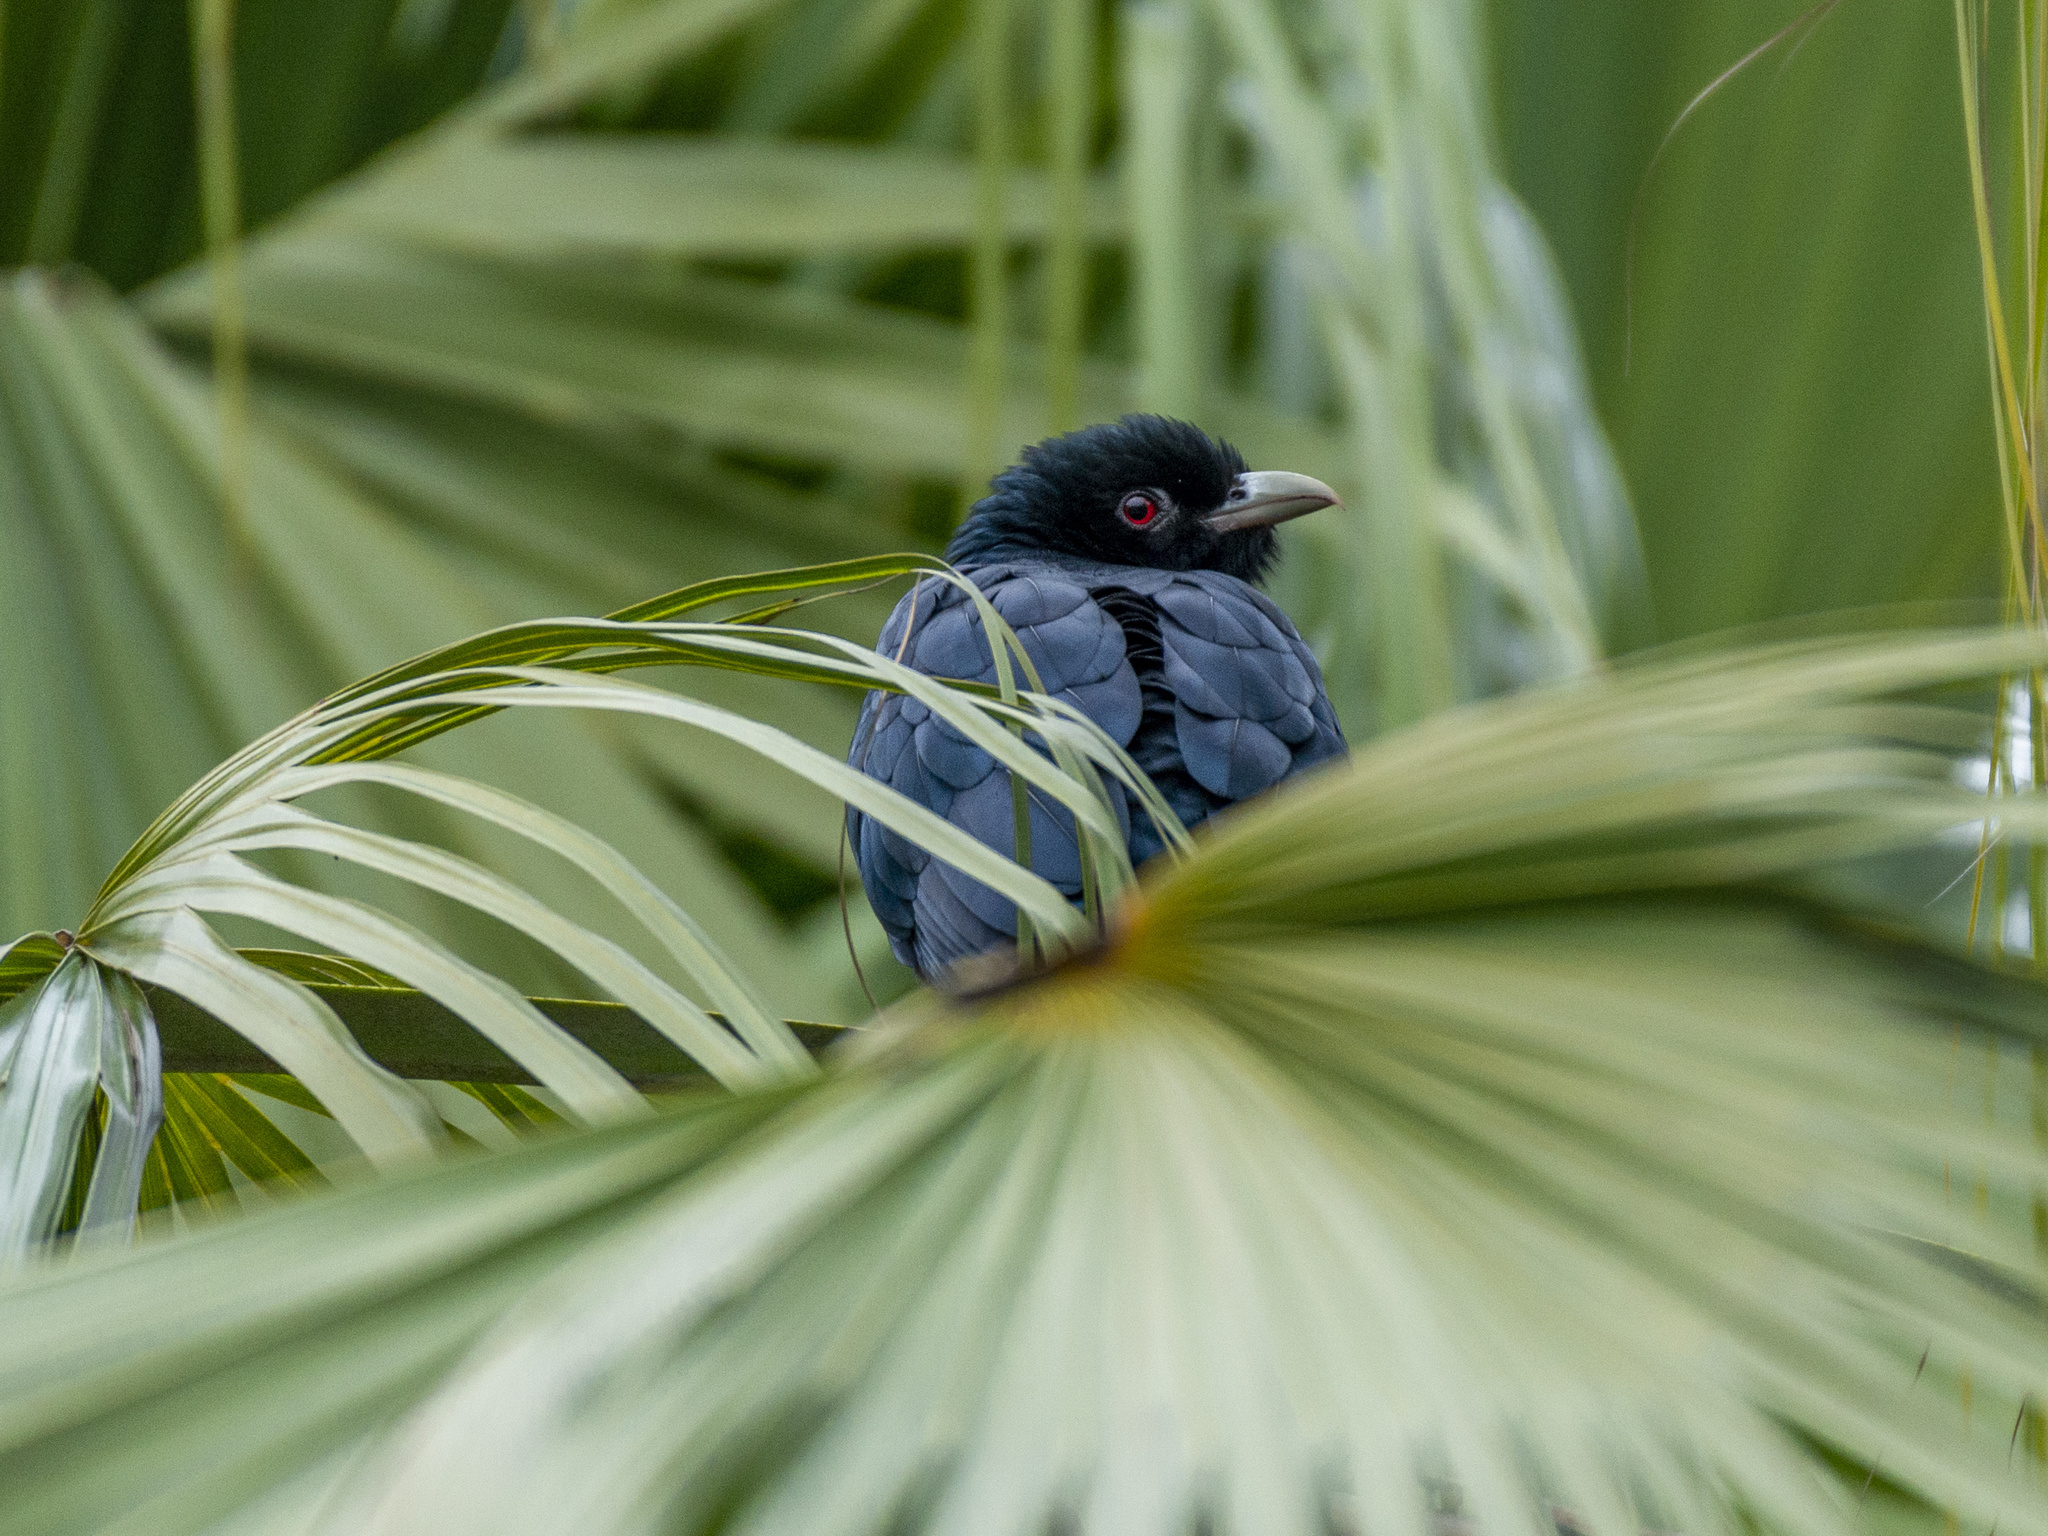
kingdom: Animalia
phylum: Chordata
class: Aves
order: Cuculiformes
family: Cuculidae
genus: Eudynamys
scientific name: Eudynamys scolopaceus
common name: Asian koel
